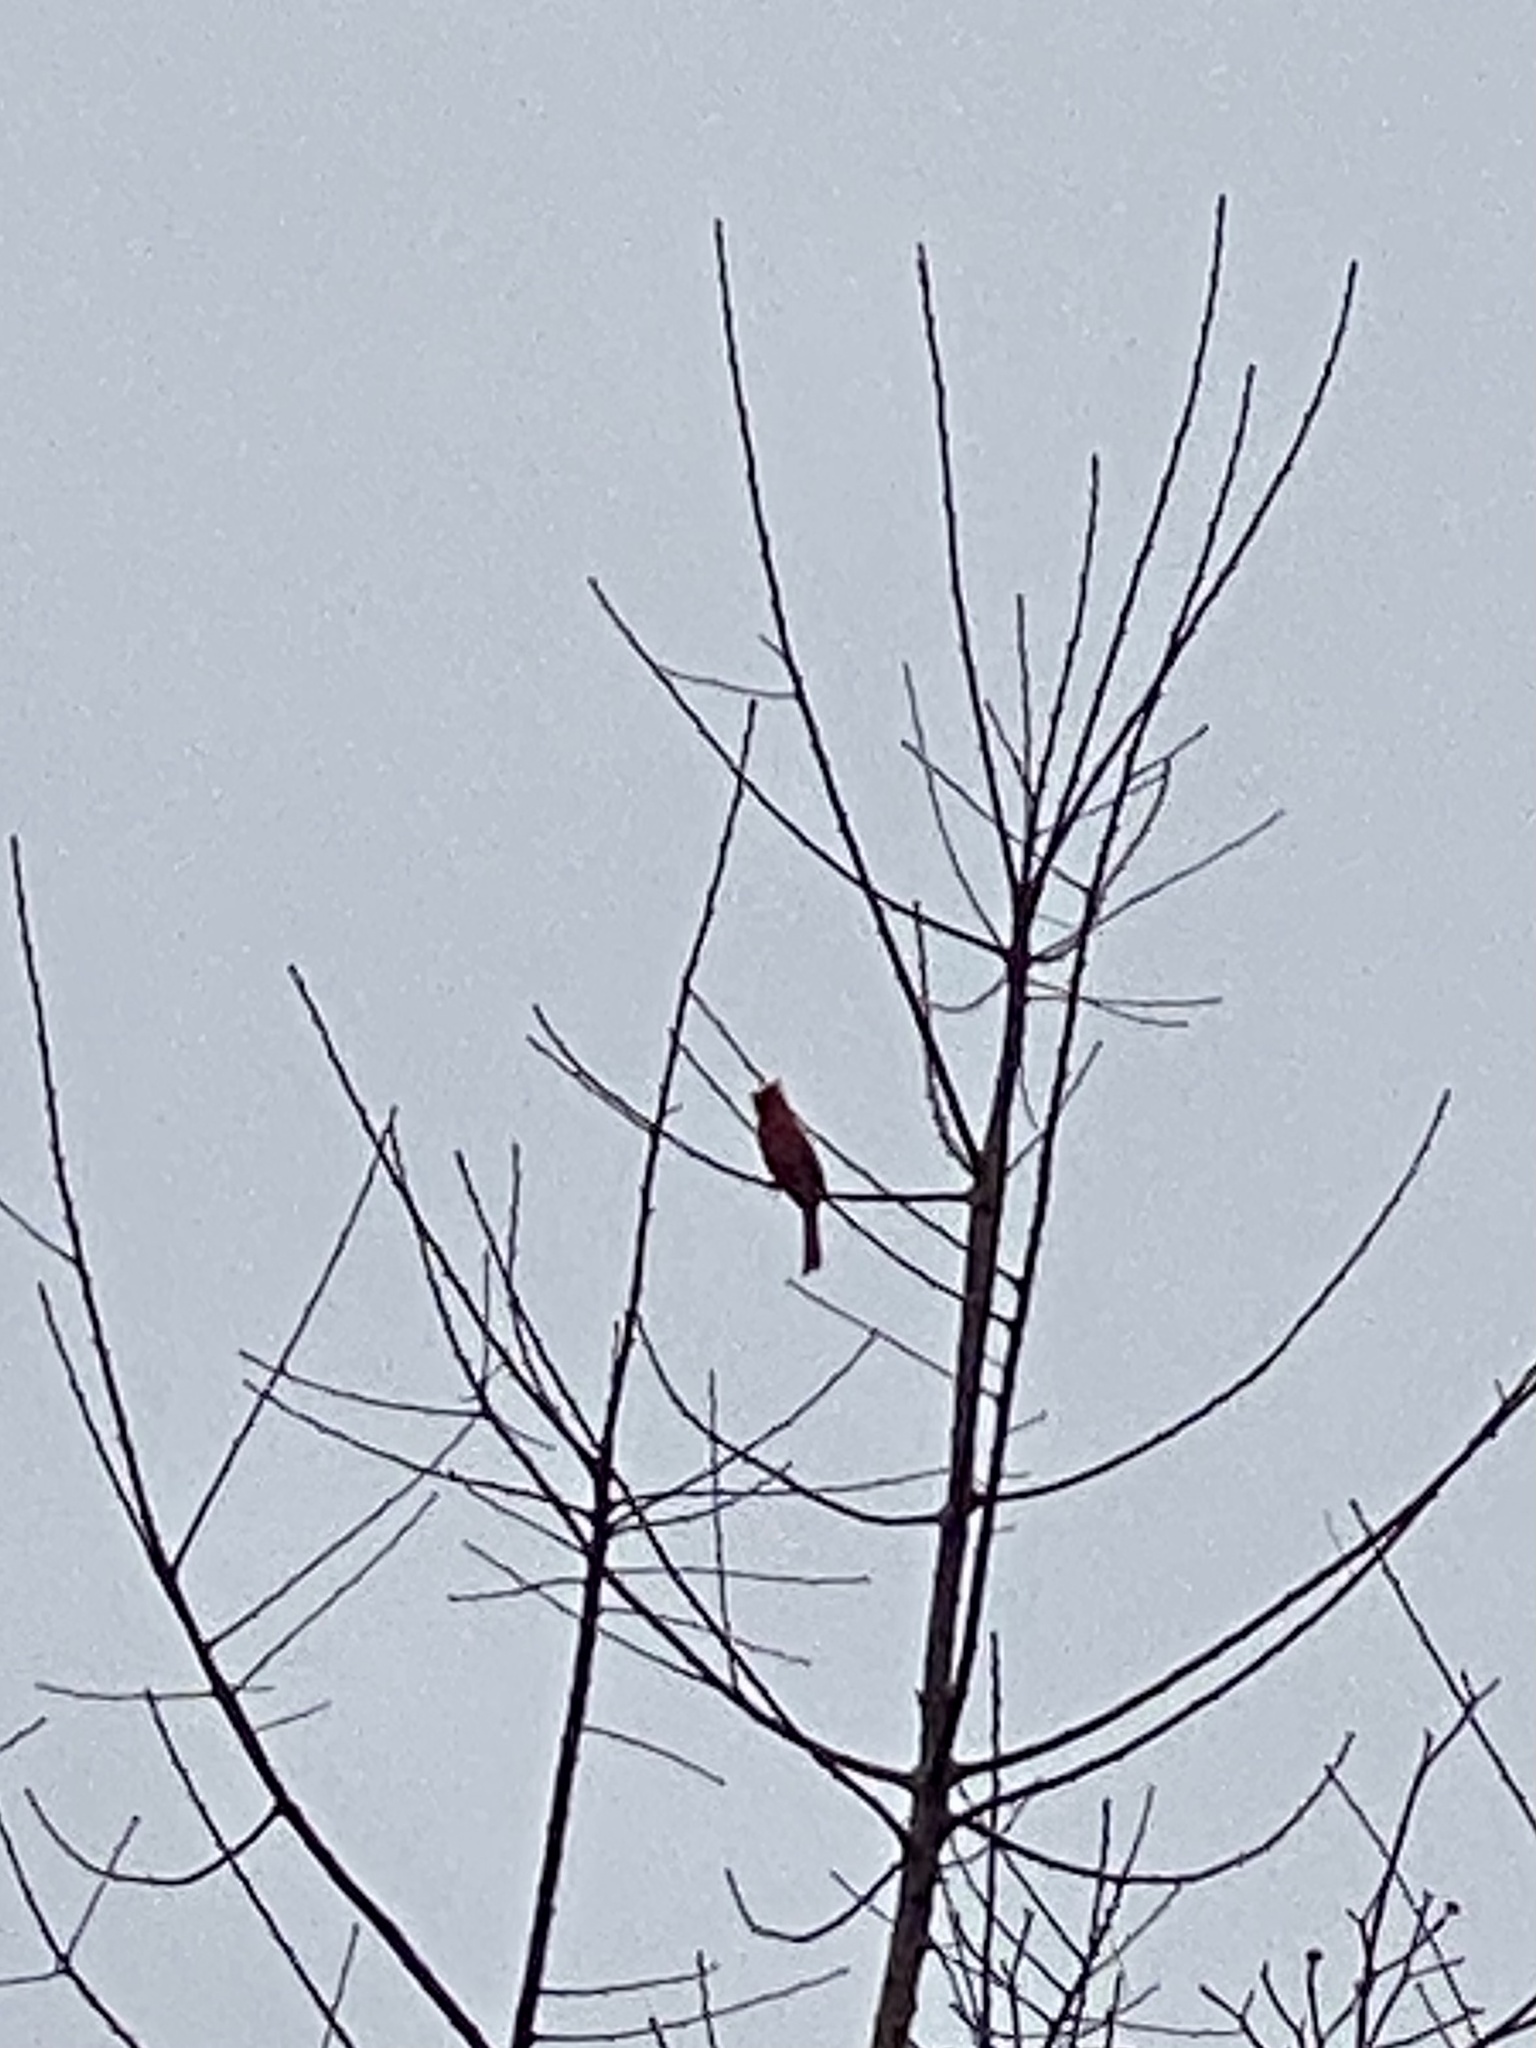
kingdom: Animalia
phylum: Chordata
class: Aves
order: Passeriformes
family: Cardinalidae
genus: Cardinalis
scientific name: Cardinalis cardinalis
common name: Northern cardinal
